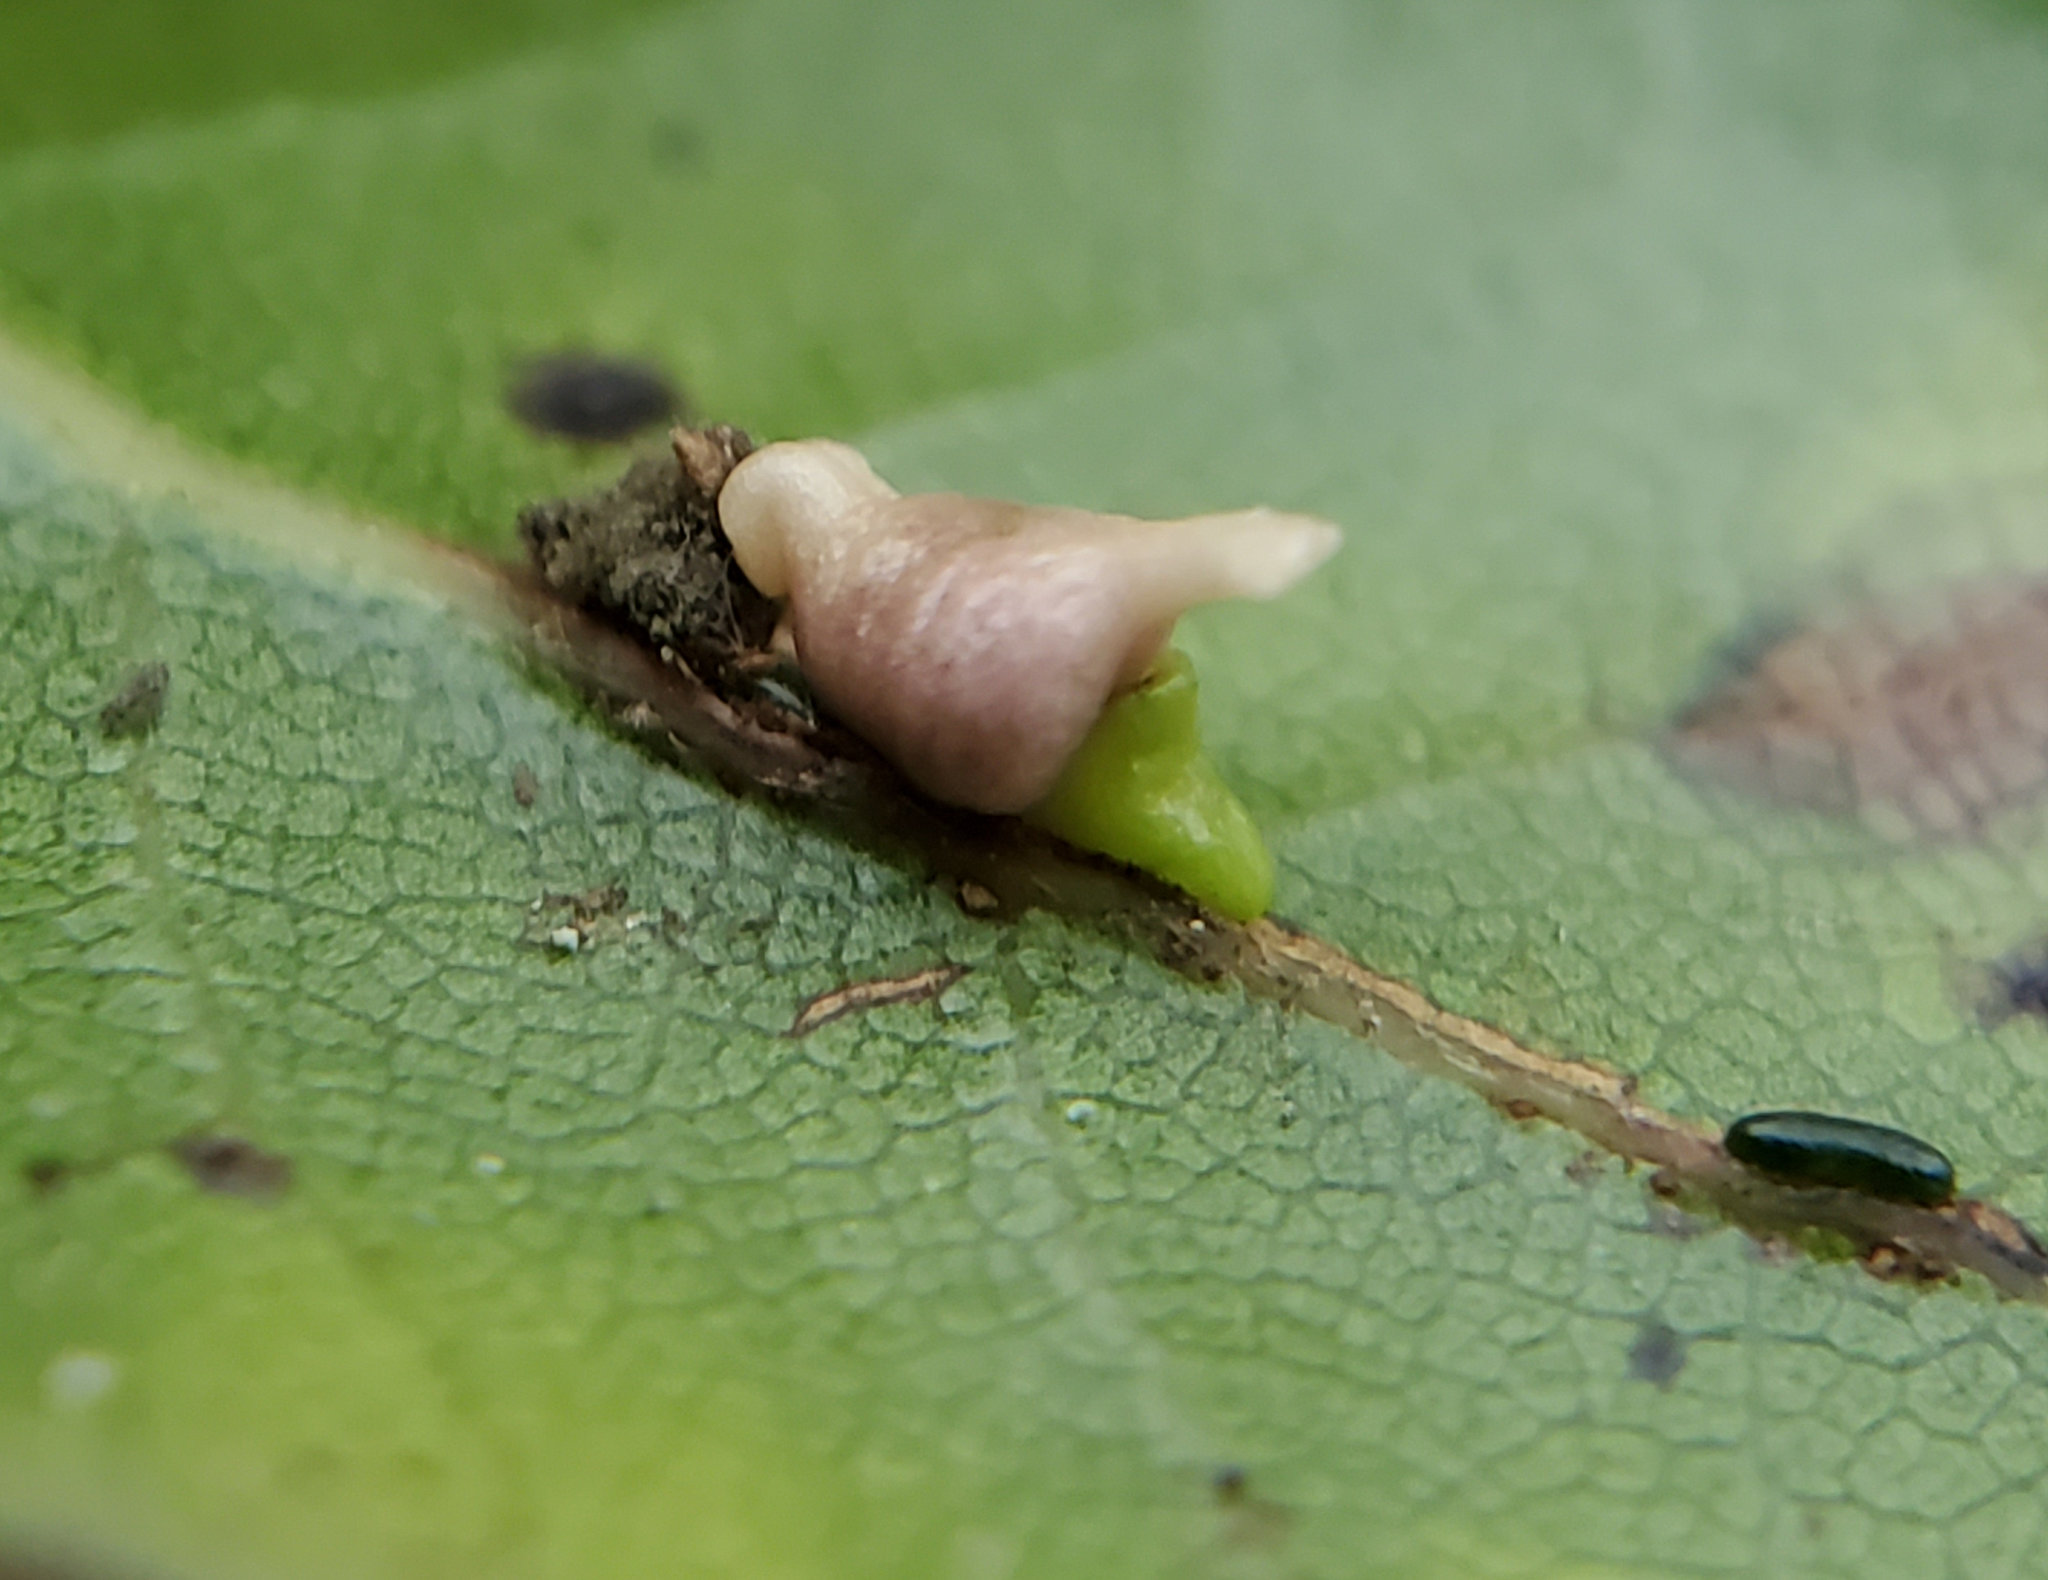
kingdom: Animalia
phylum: Arthropoda
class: Insecta
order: Hymenoptera
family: Cynipidae
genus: Dryocosmus
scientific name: Dryocosmus
